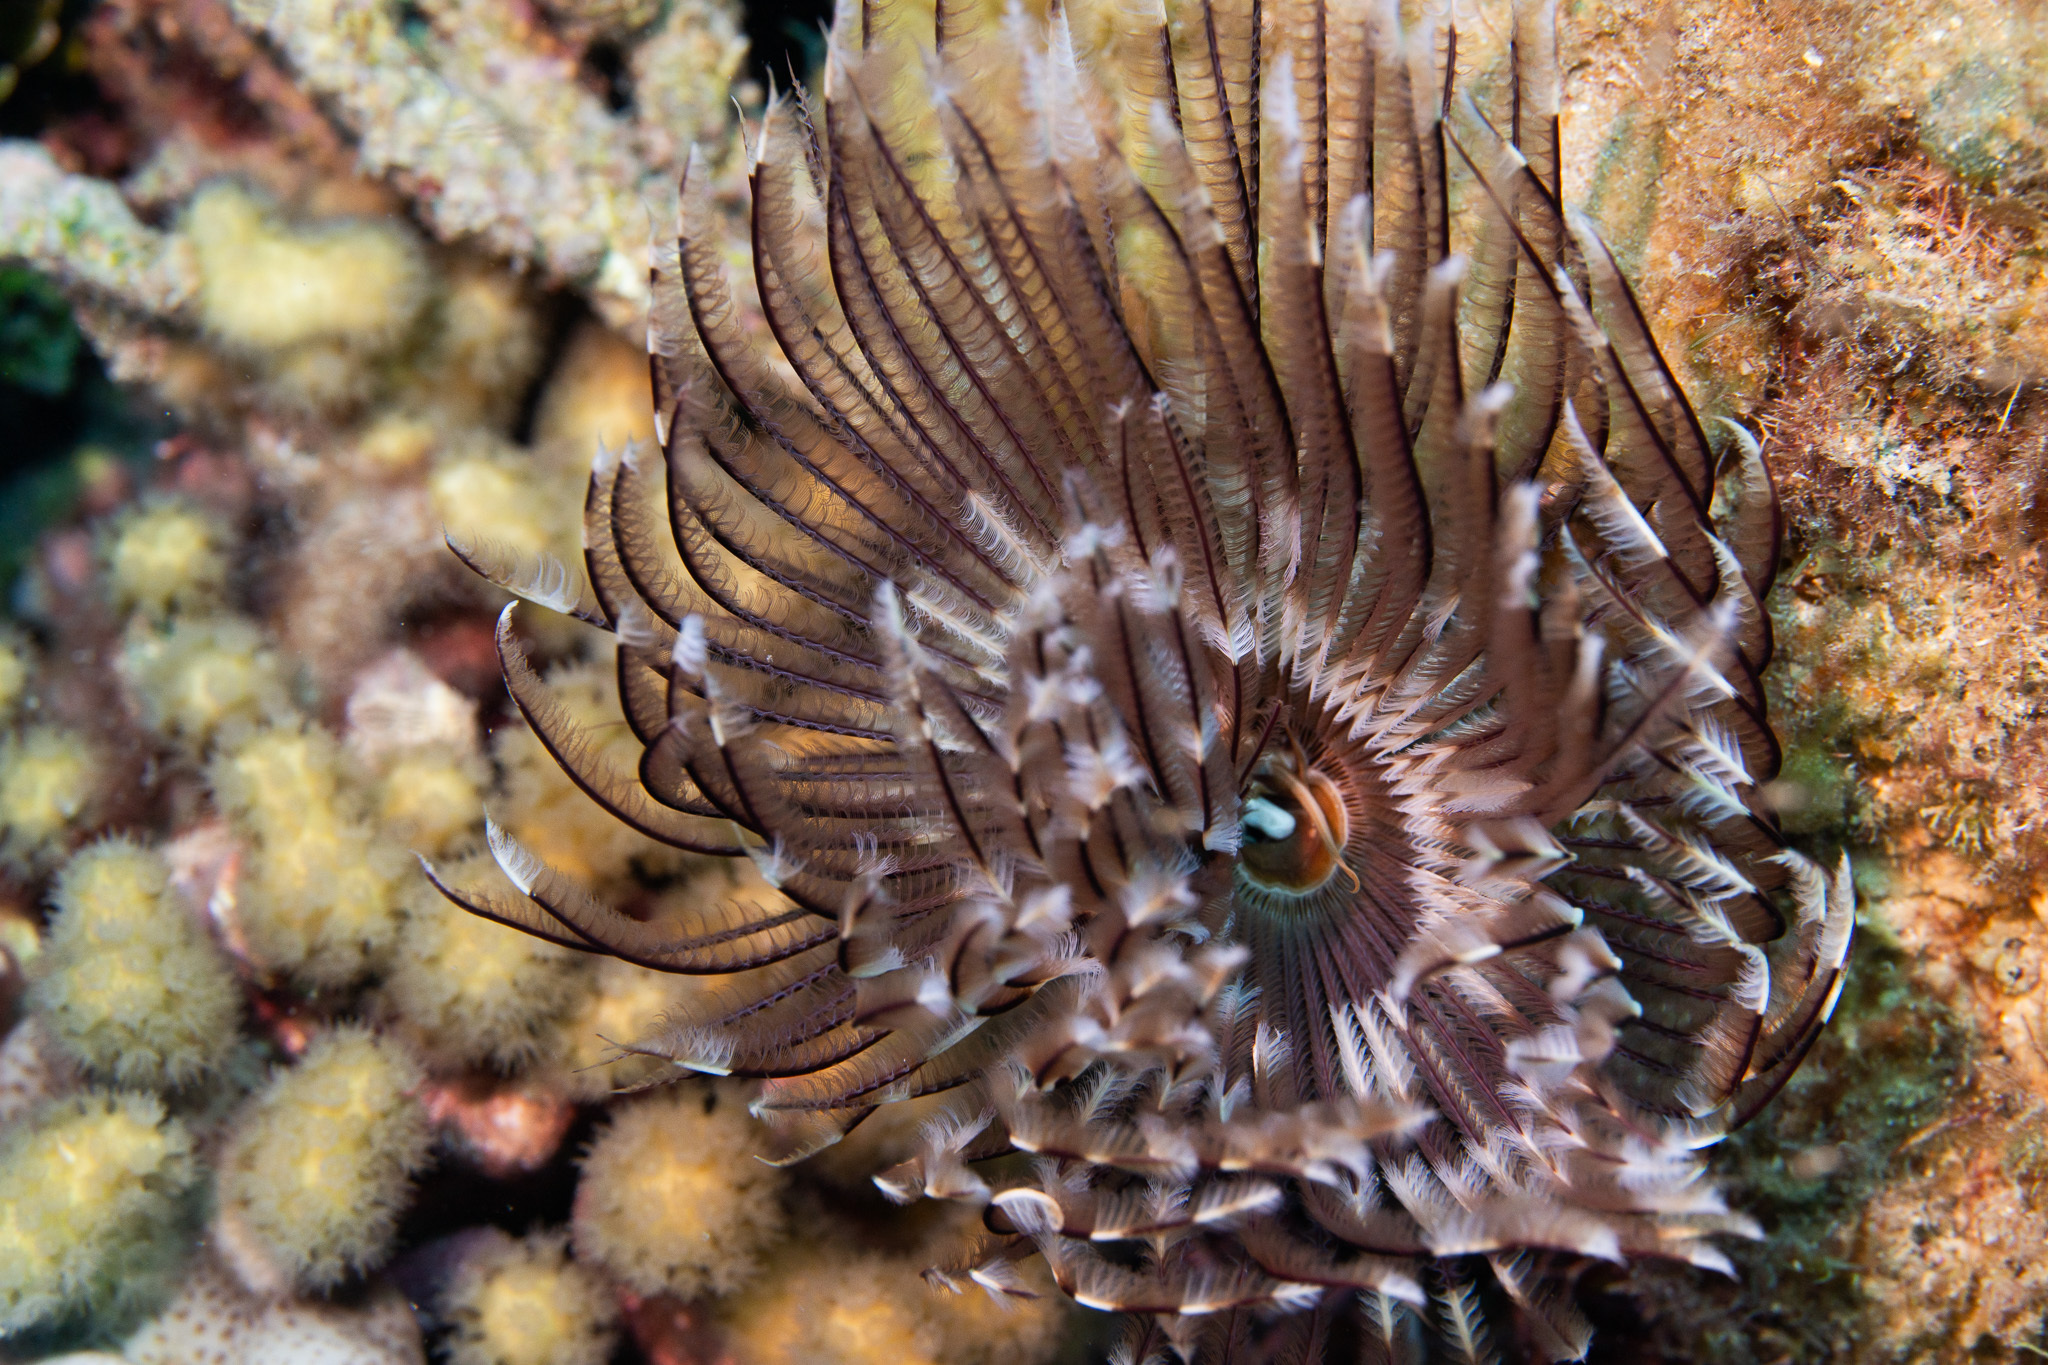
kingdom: Animalia
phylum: Annelida
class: Polychaeta
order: Sabellida
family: Sabellidae
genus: Sabellastarte
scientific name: Sabellastarte magnifica
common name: Giant feather-duster worm
